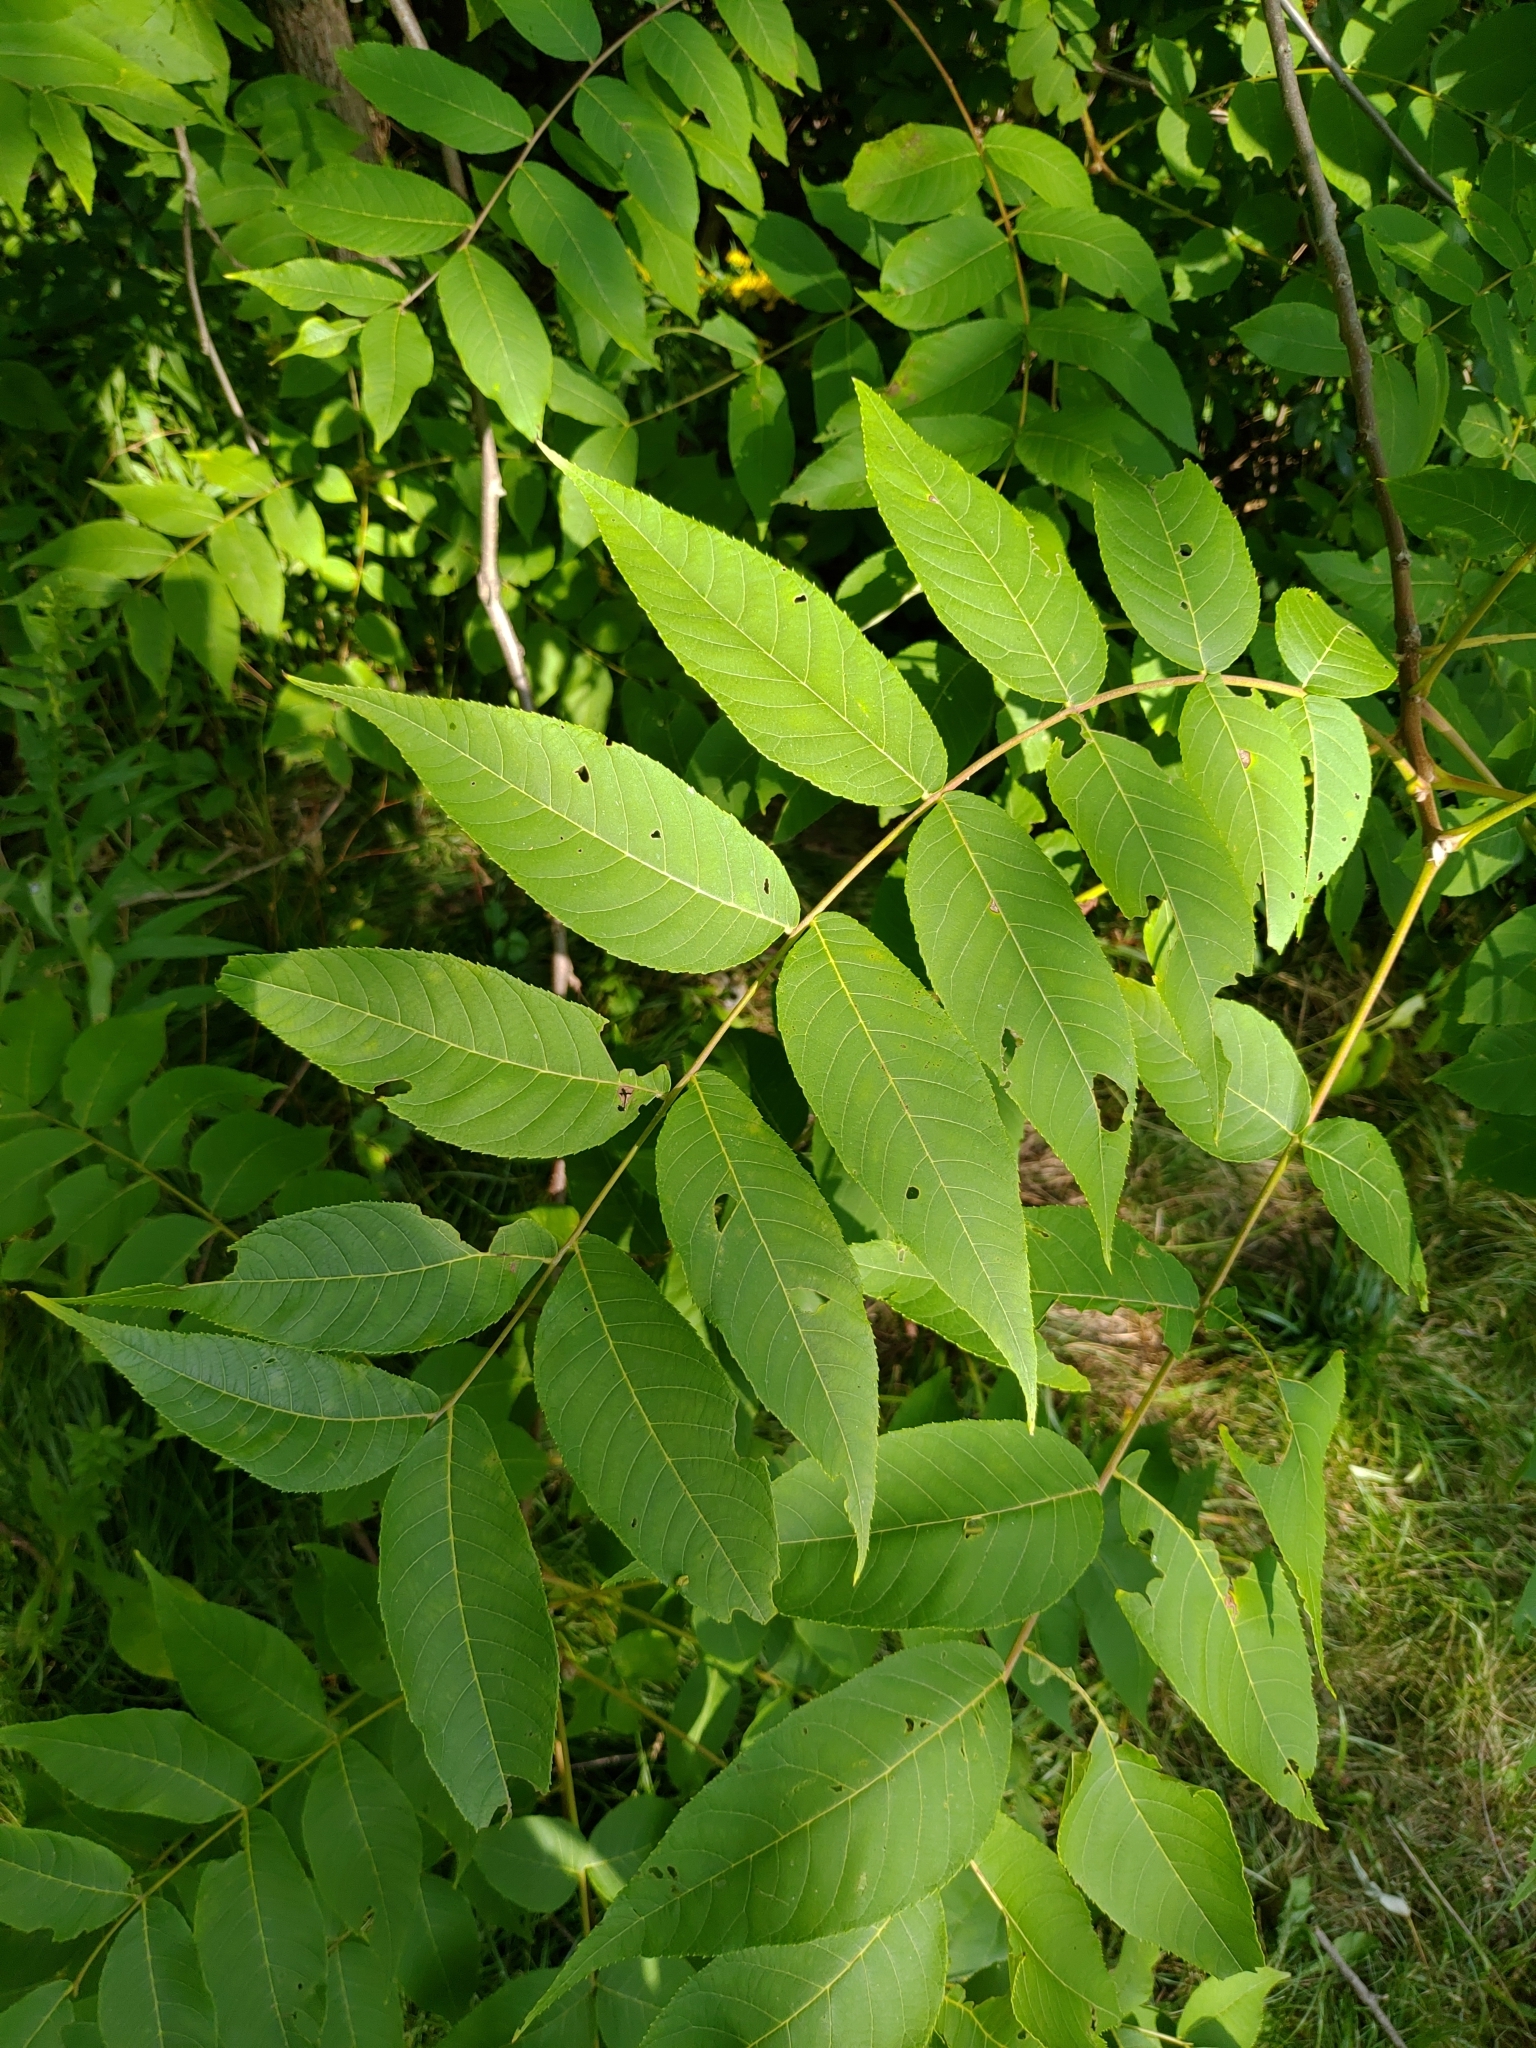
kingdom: Plantae
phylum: Tracheophyta
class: Magnoliopsida
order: Fagales
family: Juglandaceae
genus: Juglans
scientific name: Juglans nigra
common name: Black walnut
